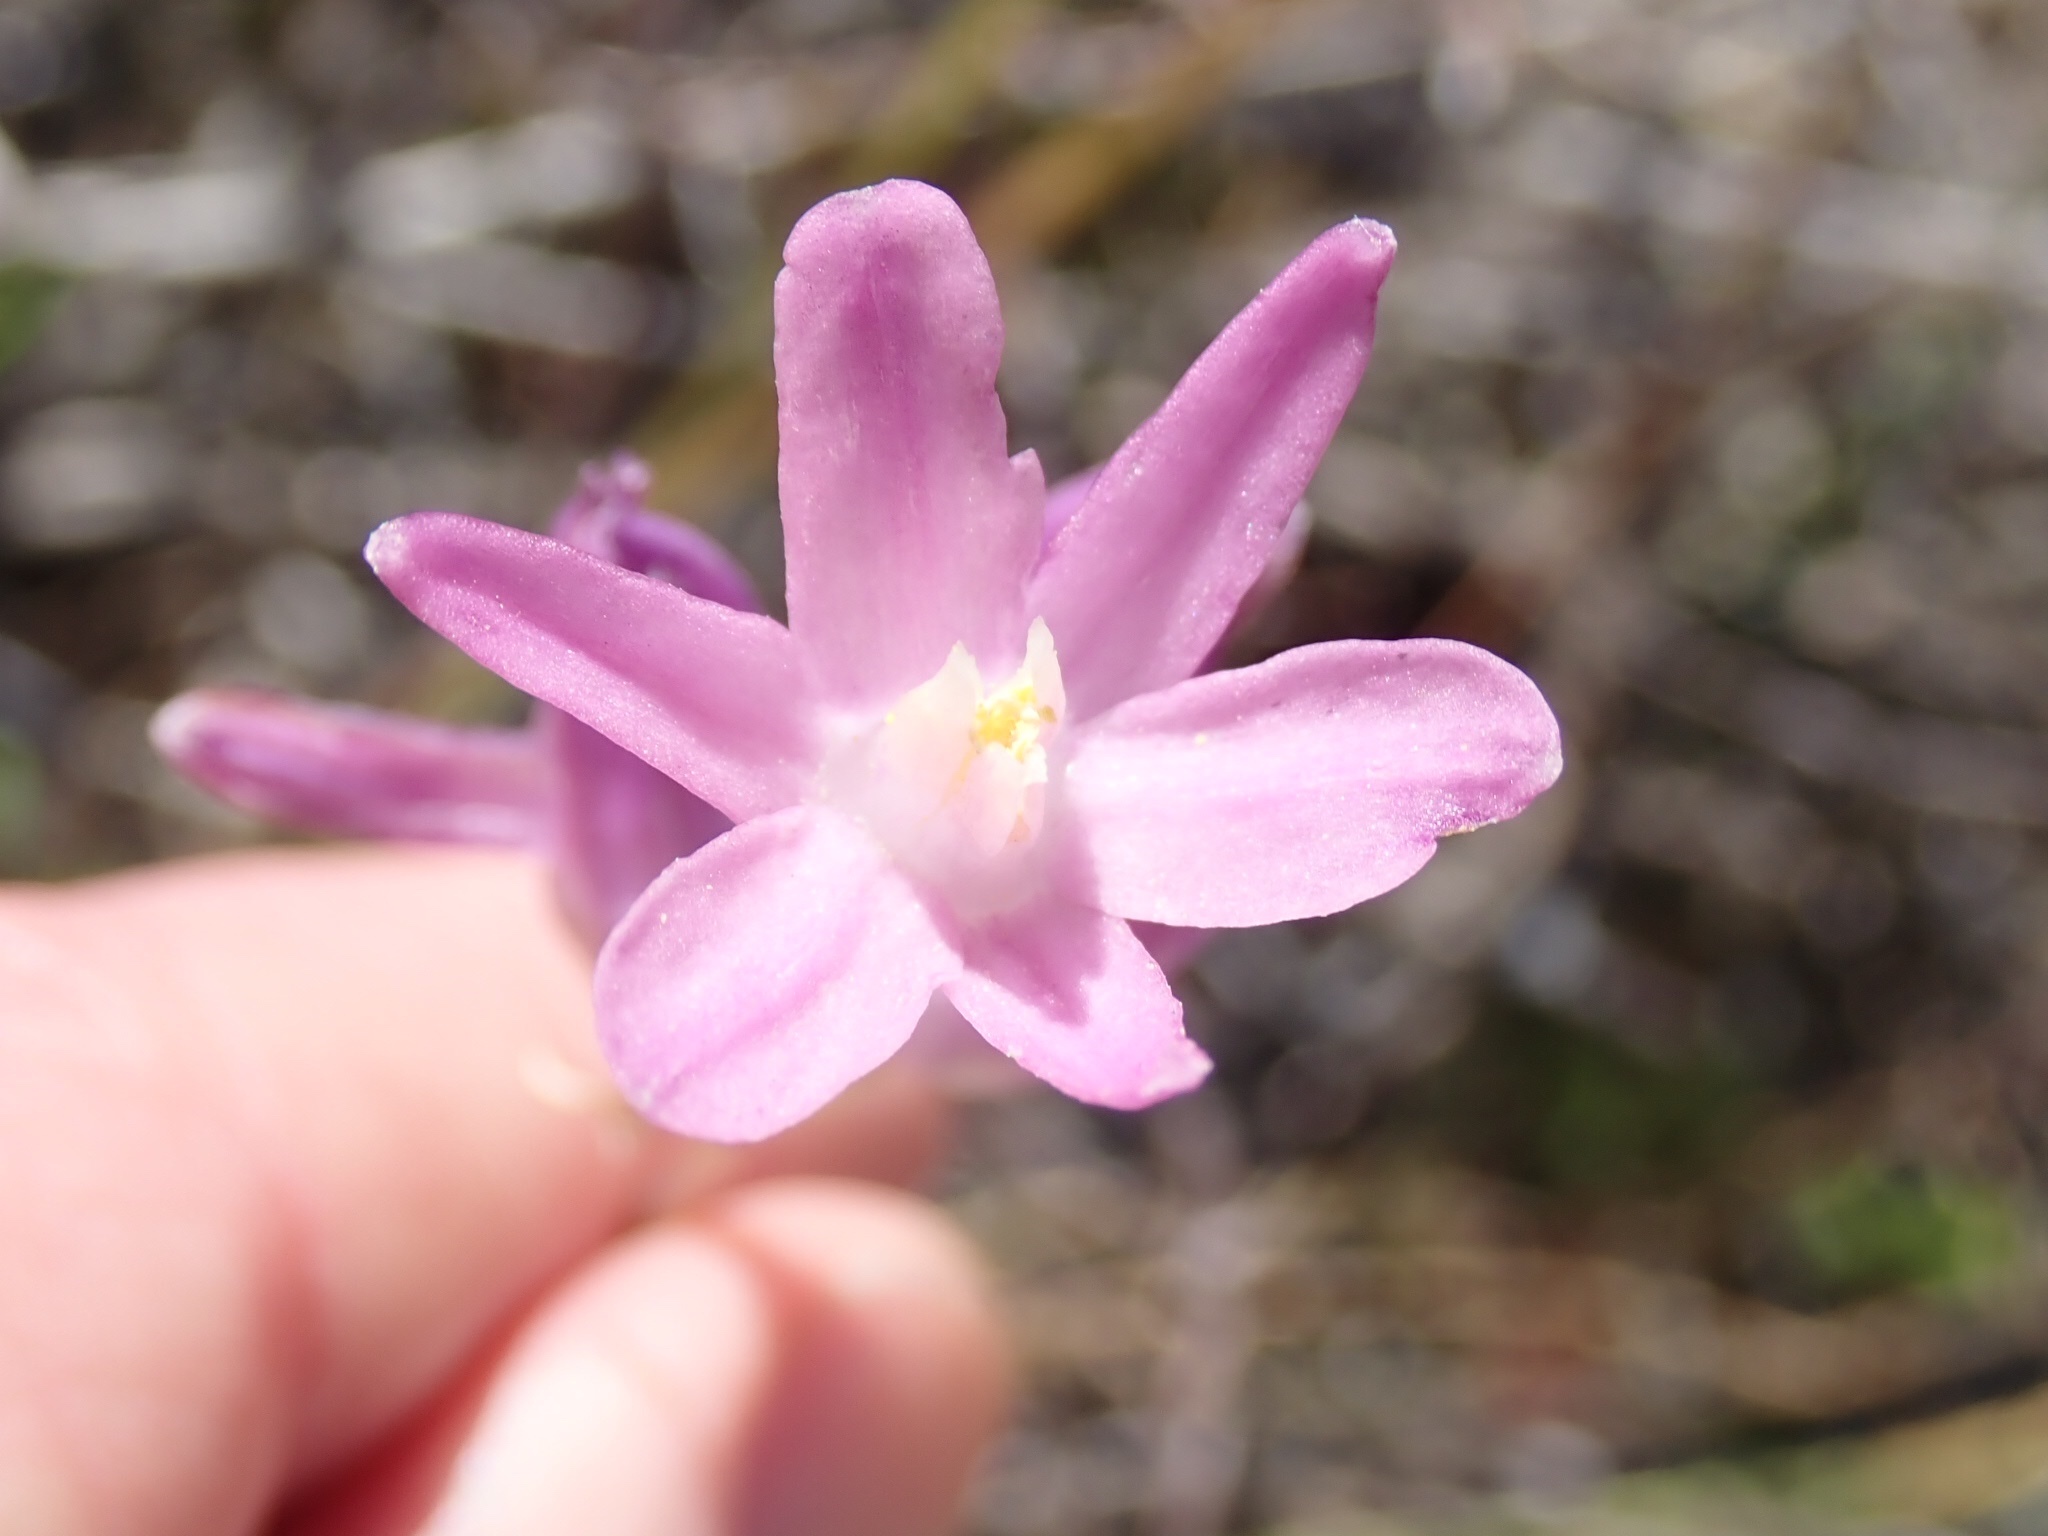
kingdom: Plantae
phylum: Tracheophyta
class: Liliopsida
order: Asparagales
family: Asparagaceae
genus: Dipterostemon
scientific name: Dipterostemon capitatus
